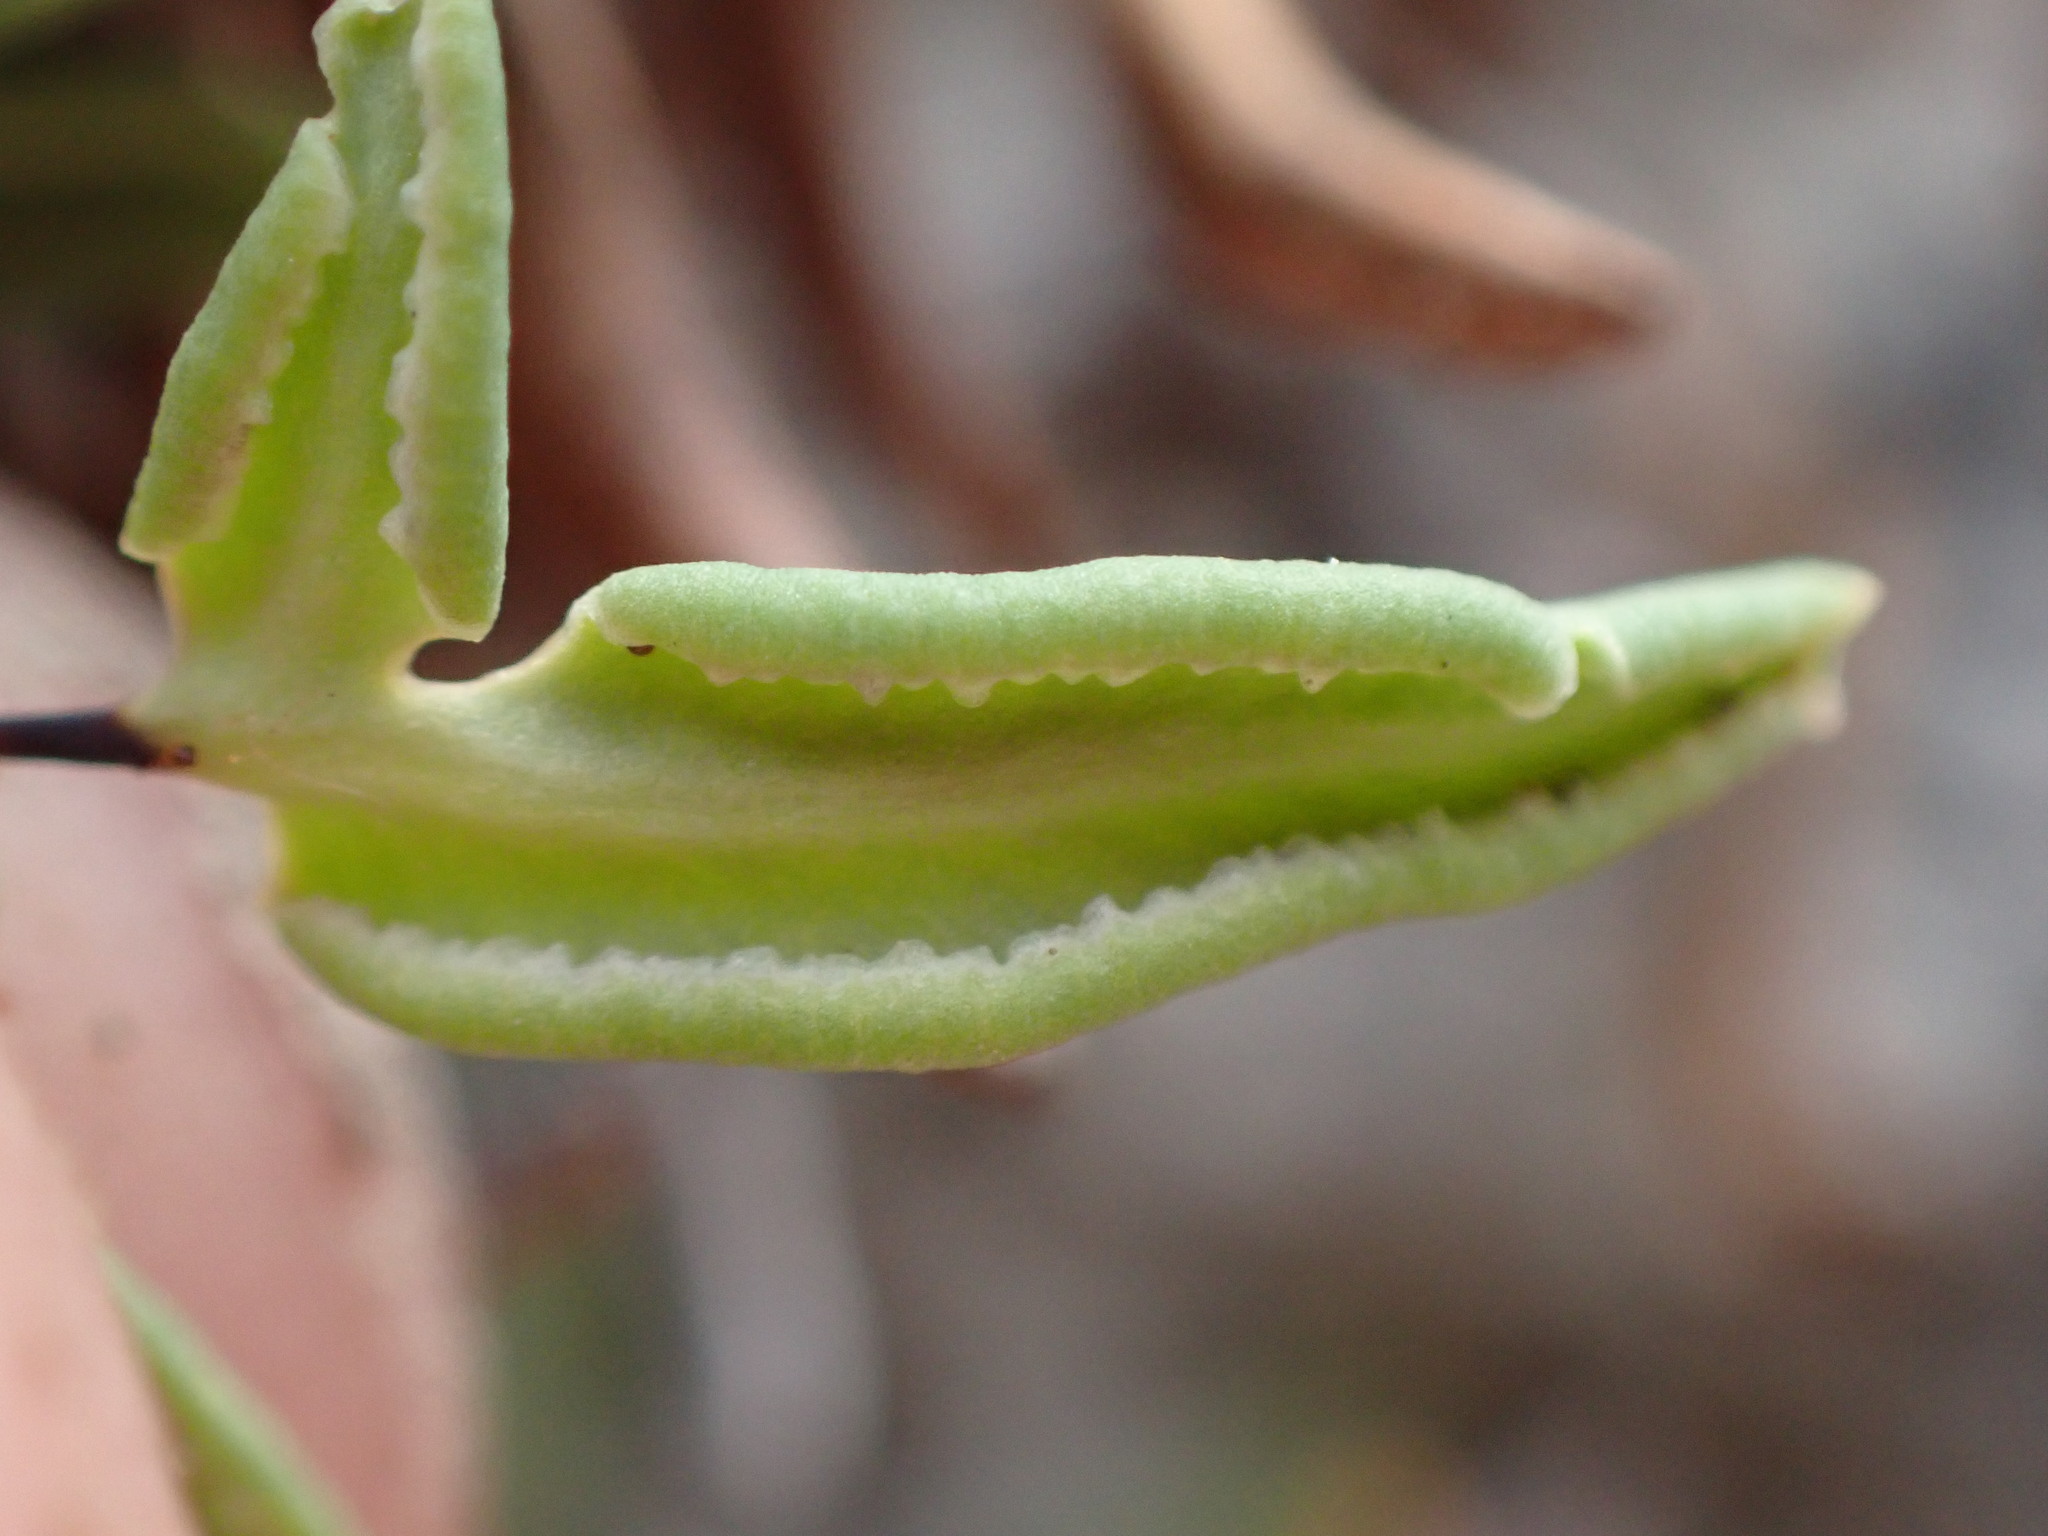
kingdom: Plantae
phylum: Tracheophyta
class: Polypodiopsida
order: Polypodiales
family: Pteridaceae
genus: Pellaea
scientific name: Pellaea glabella
